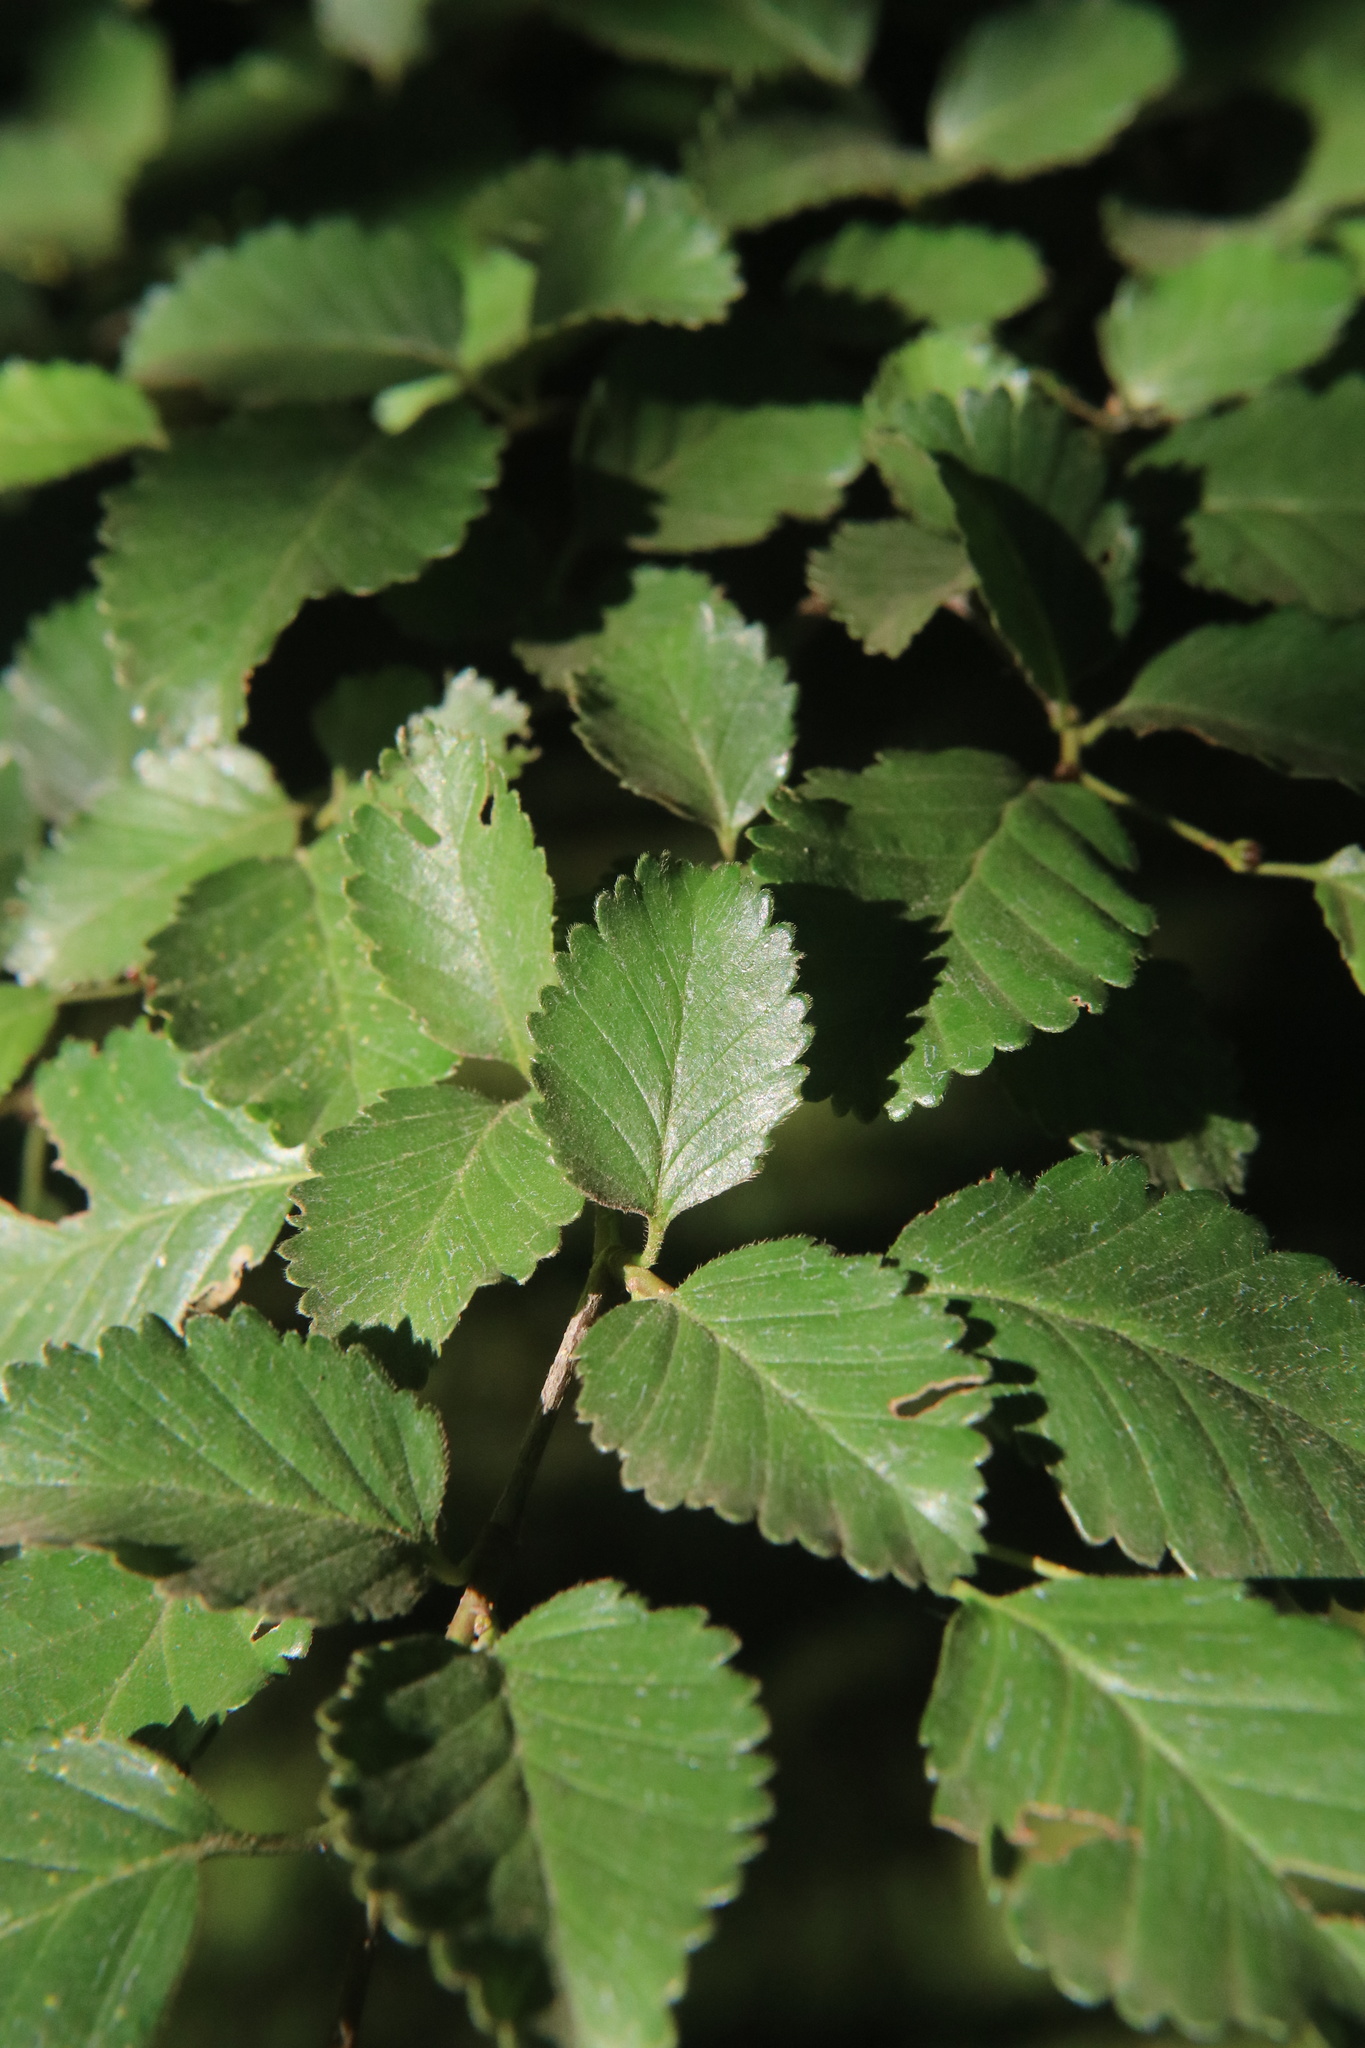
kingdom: Plantae
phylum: Tracheophyta
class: Magnoliopsida
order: Fagales
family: Nothofagaceae
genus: Nothofagus
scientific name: Nothofagus pumilio
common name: Lenga beech
